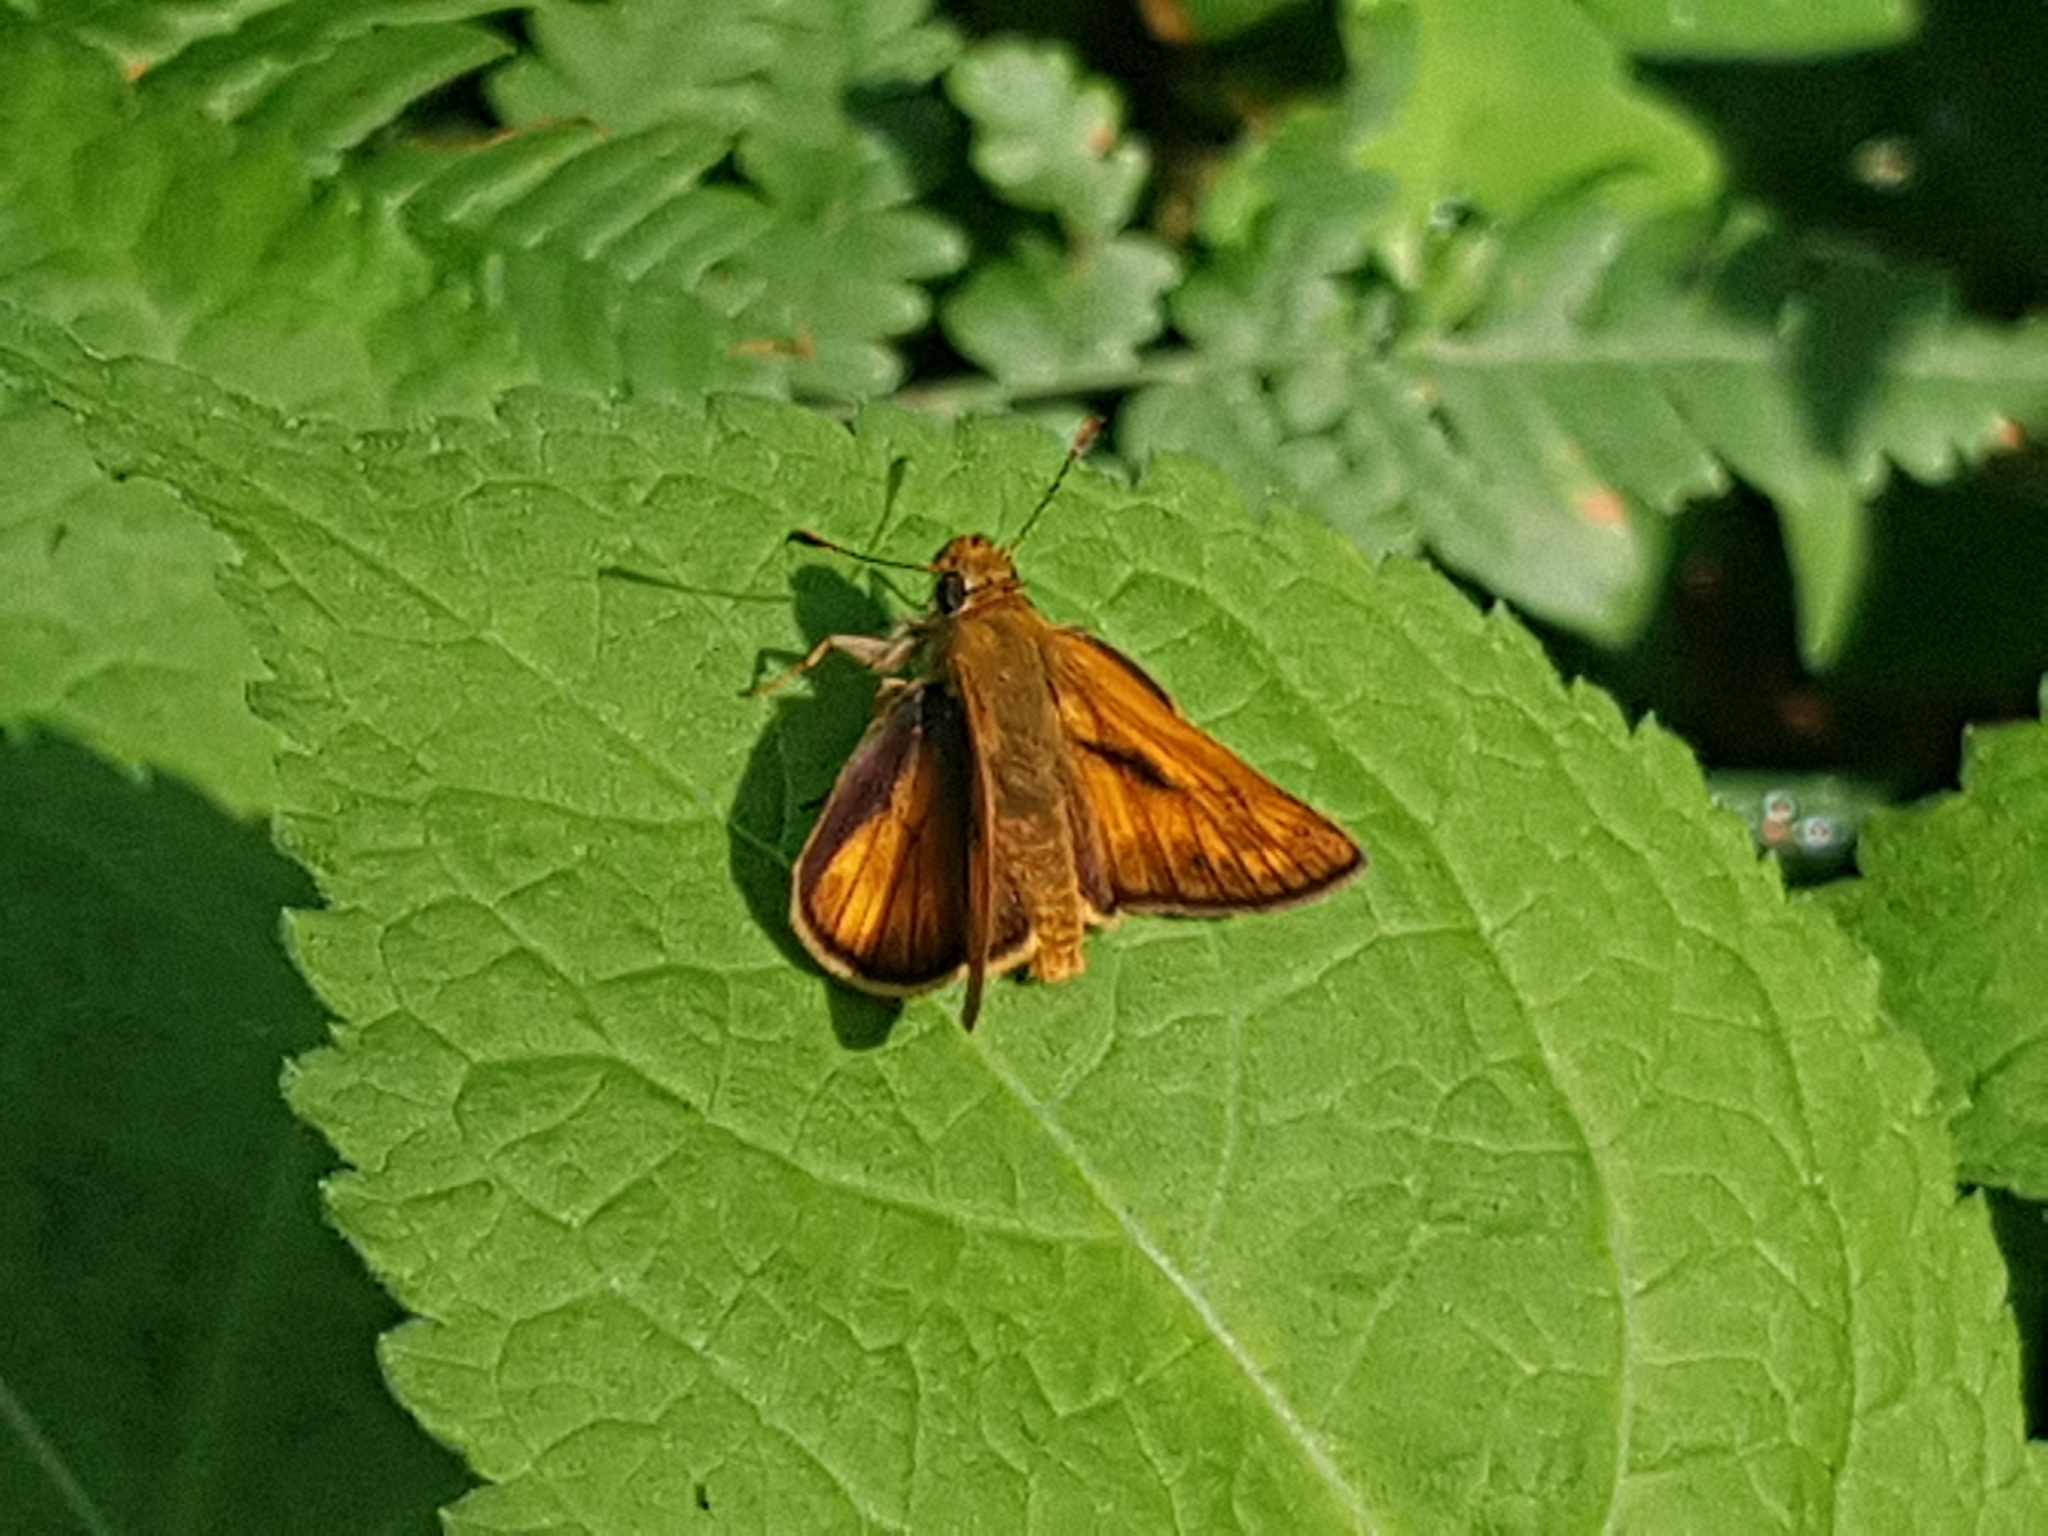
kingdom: Animalia
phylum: Arthropoda
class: Insecta
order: Lepidoptera
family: Hesperiidae
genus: Ochlodes
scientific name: Ochlodes venata
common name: Large skipper
